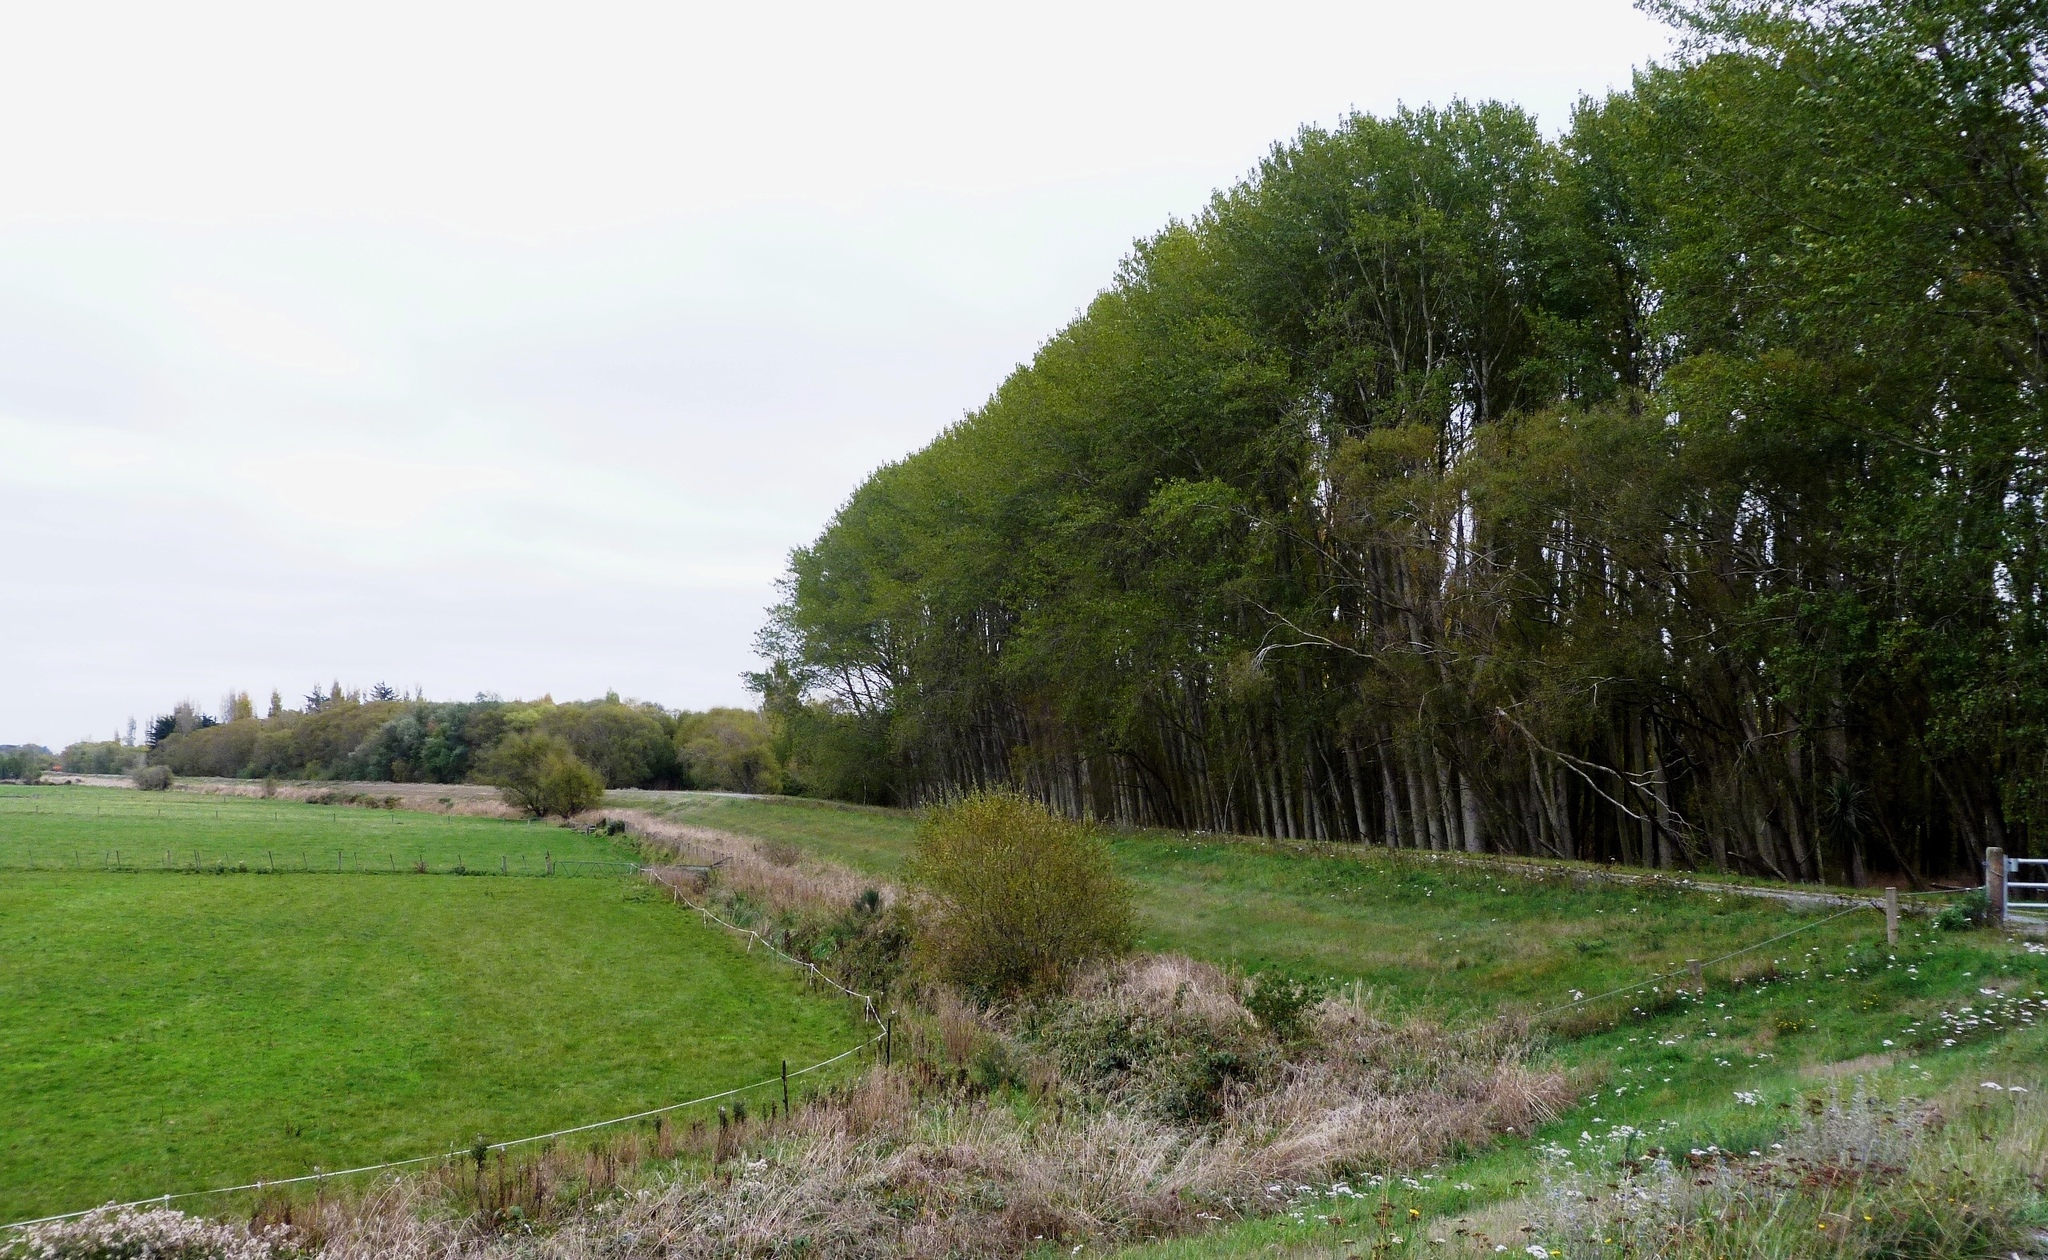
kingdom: Plantae
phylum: Tracheophyta
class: Magnoliopsida
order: Malpighiales
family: Salicaceae
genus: Salix
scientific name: Salix fragilis
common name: Crack willow
